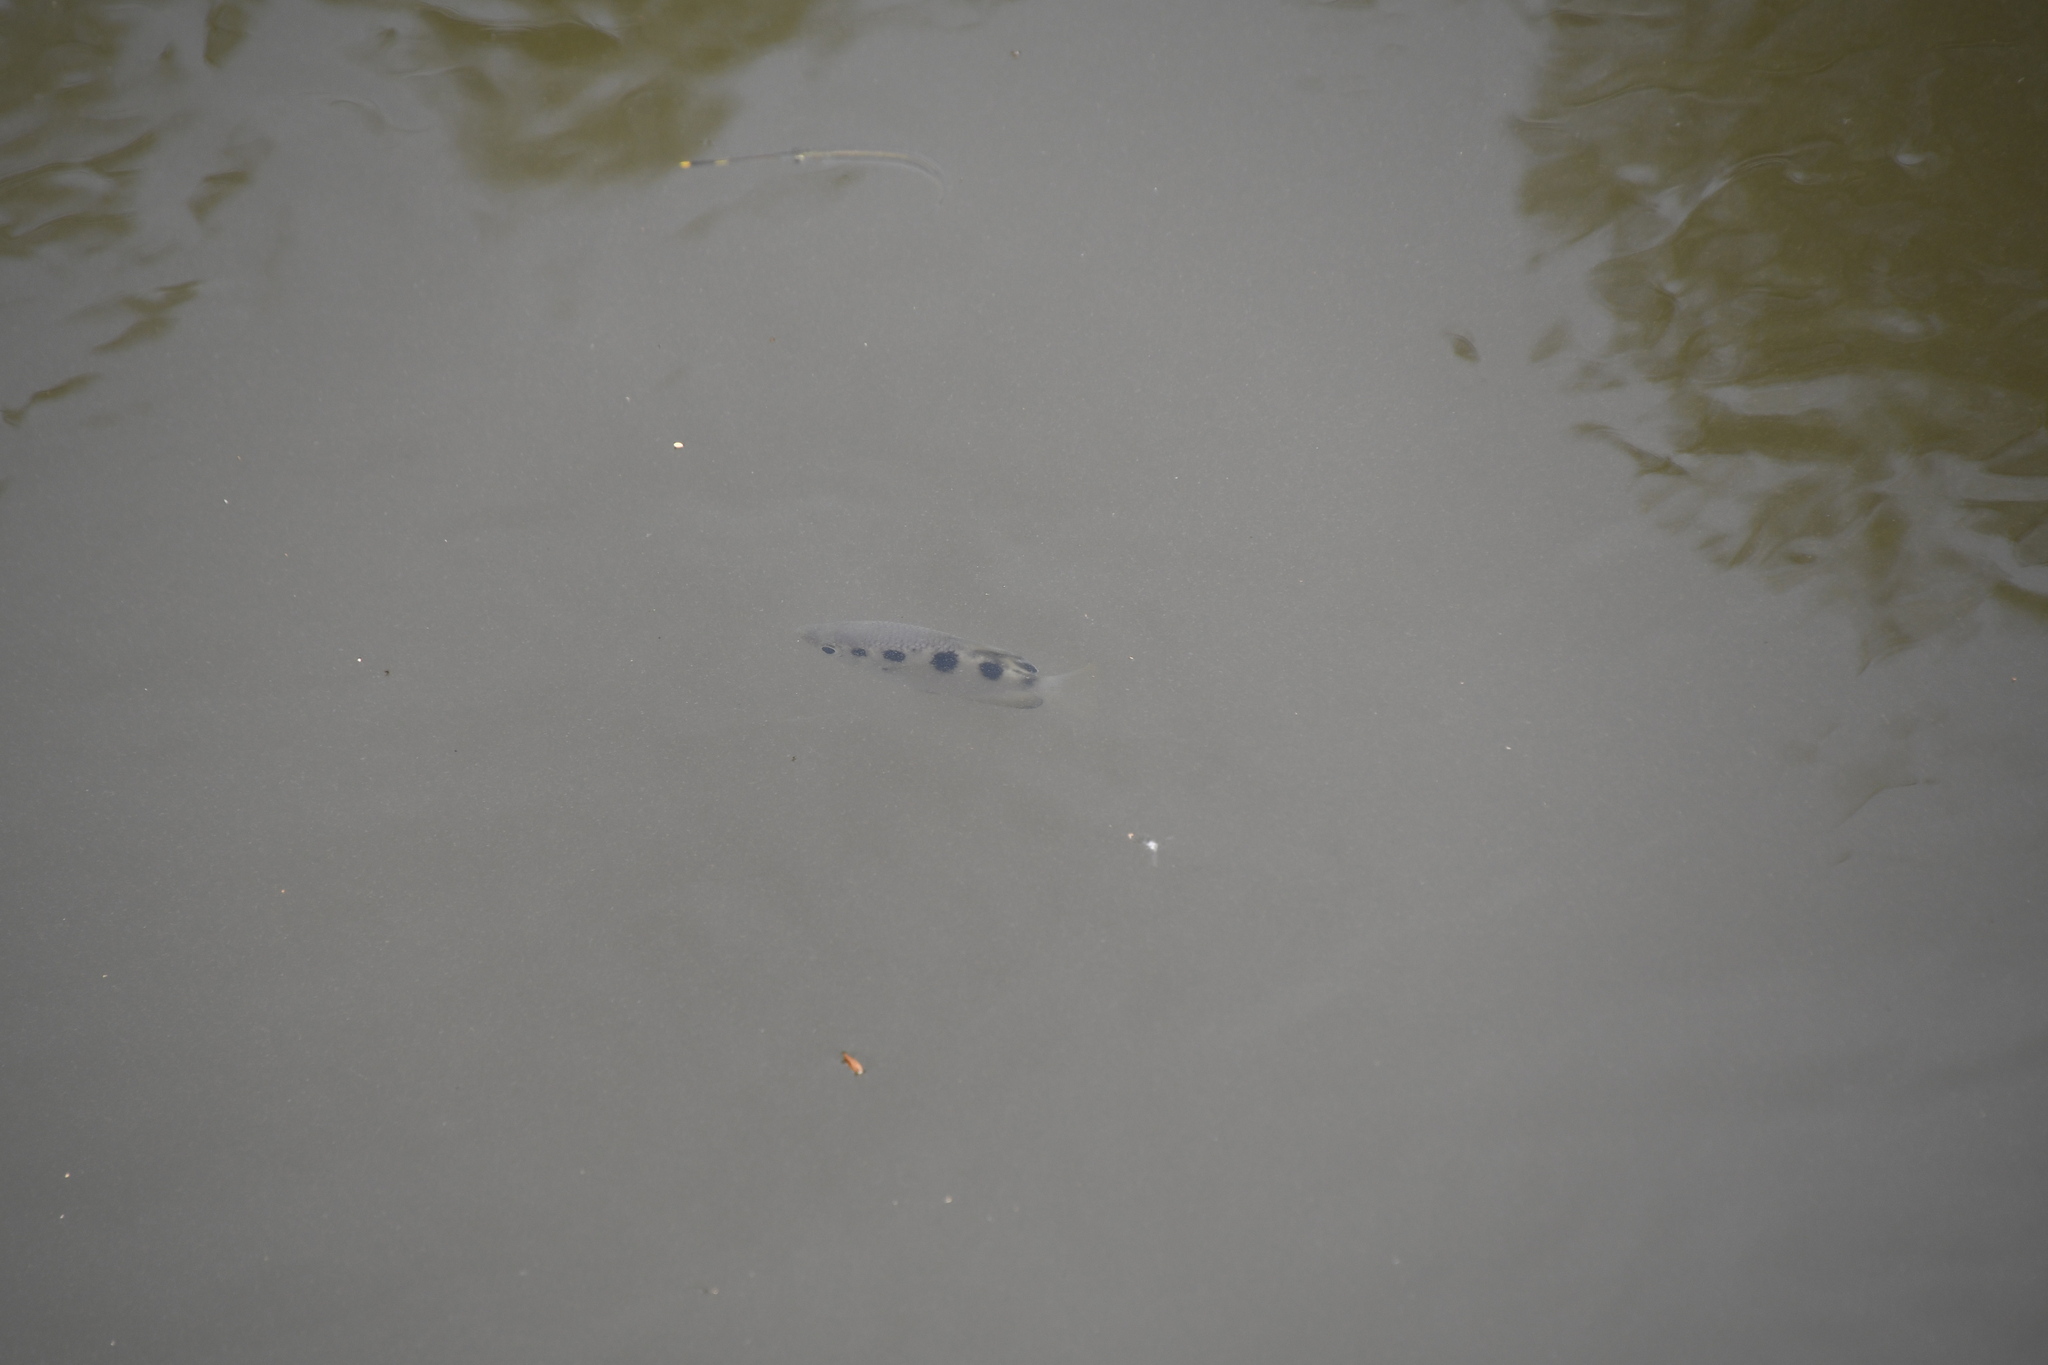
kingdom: Animalia
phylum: Chordata
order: Perciformes
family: Toxotidae
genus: Toxotes
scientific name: Toxotes chatareus
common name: Spotted archerfish
